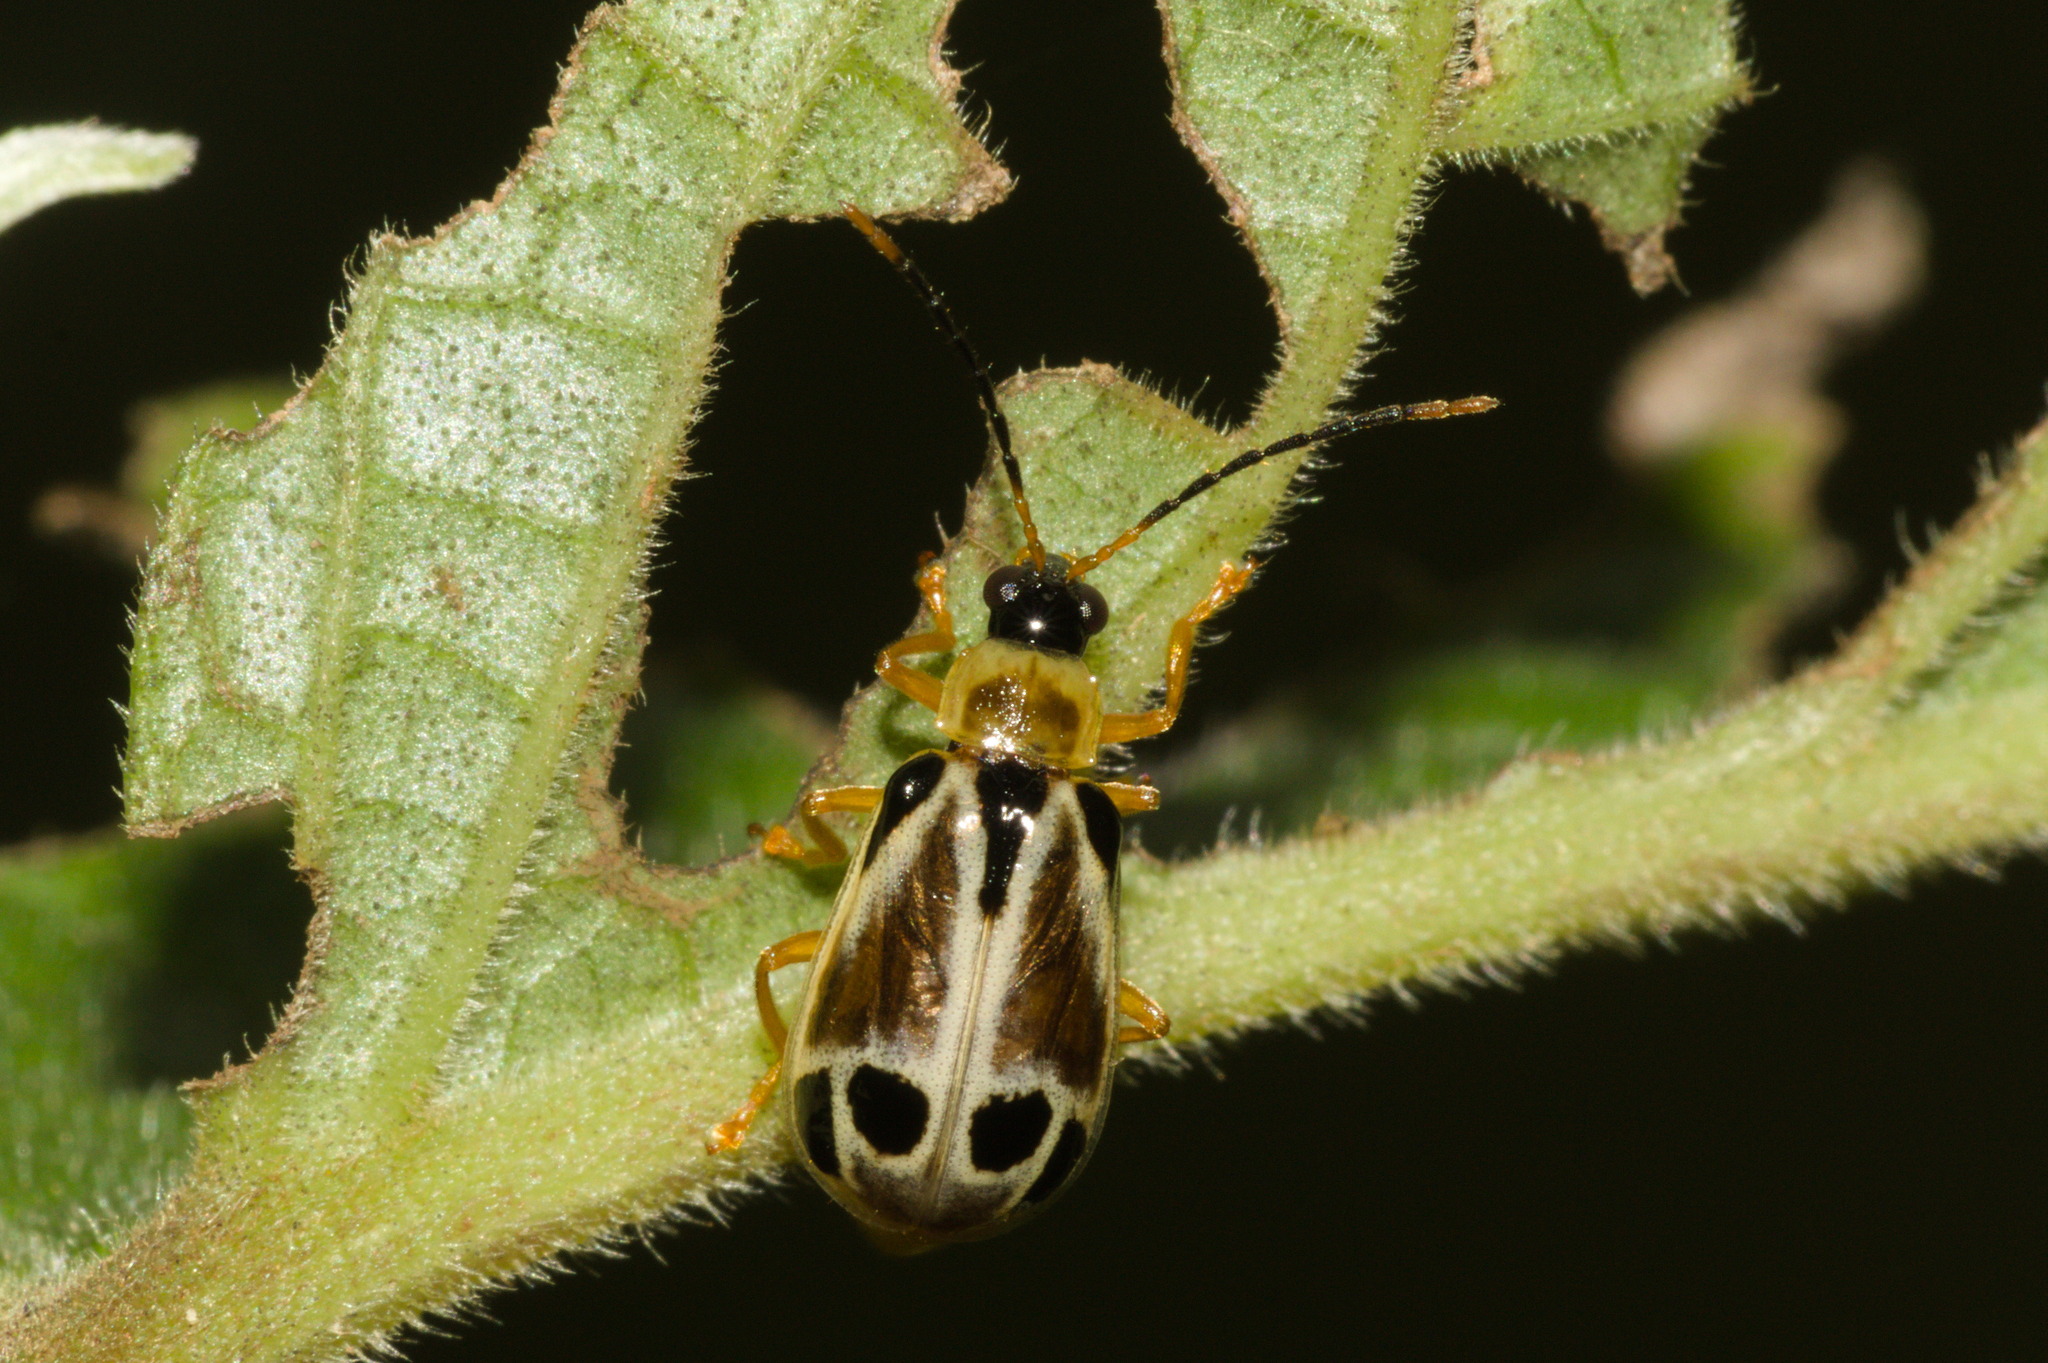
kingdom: Animalia
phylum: Arthropoda
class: Insecta
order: Coleoptera
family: Chrysomelidae
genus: Diabrotica
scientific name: Diabrotica
